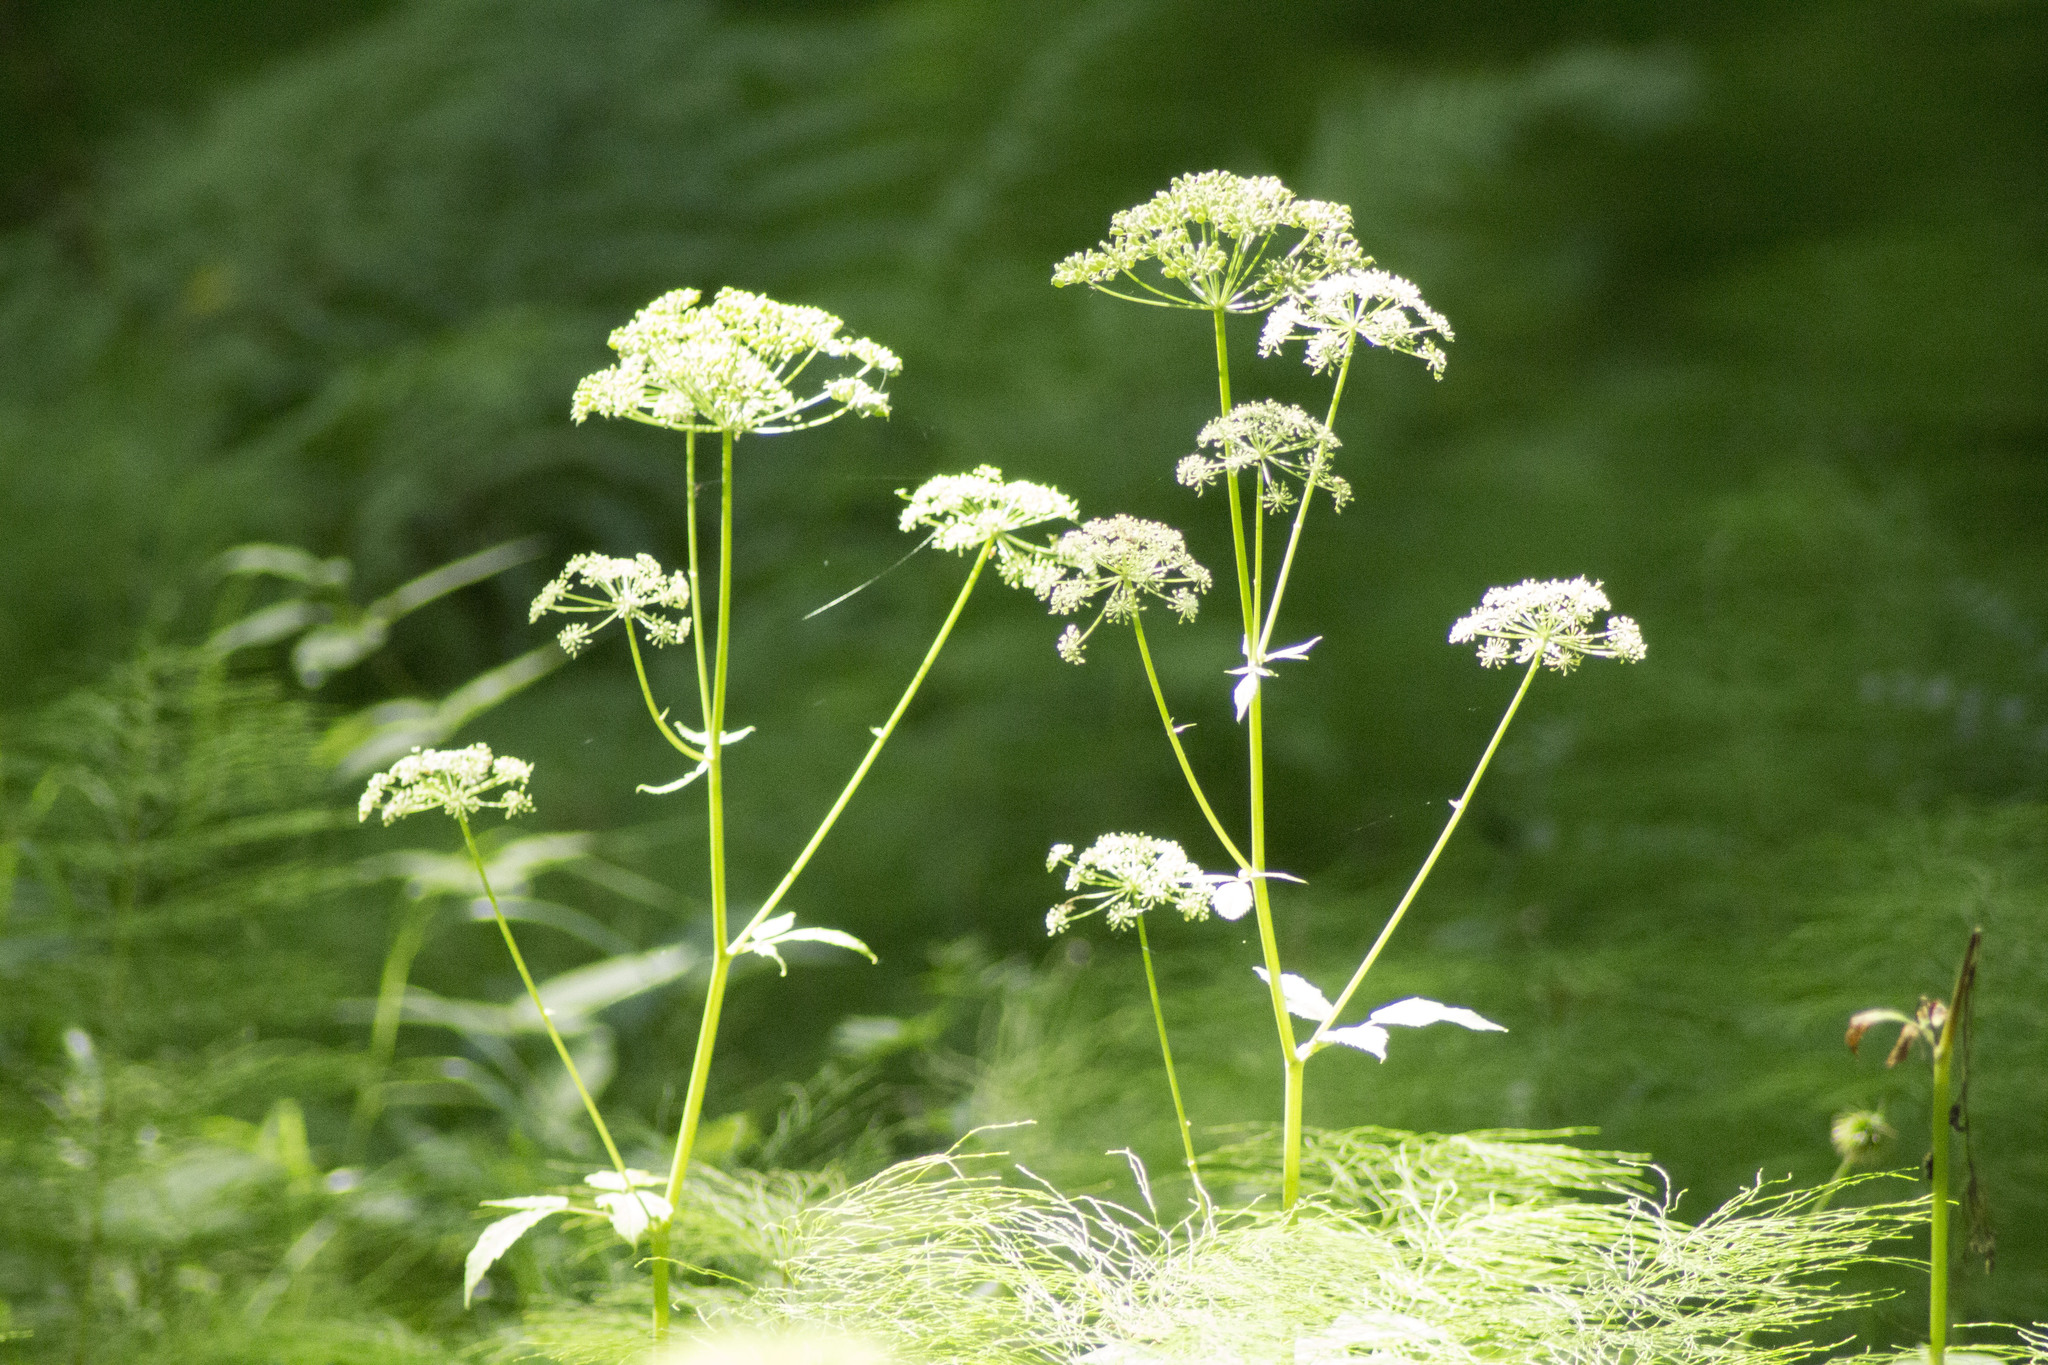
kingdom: Plantae
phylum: Tracheophyta
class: Magnoliopsida
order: Apiales
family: Apiaceae
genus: Aegopodium
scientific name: Aegopodium podagraria
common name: Ground-elder
